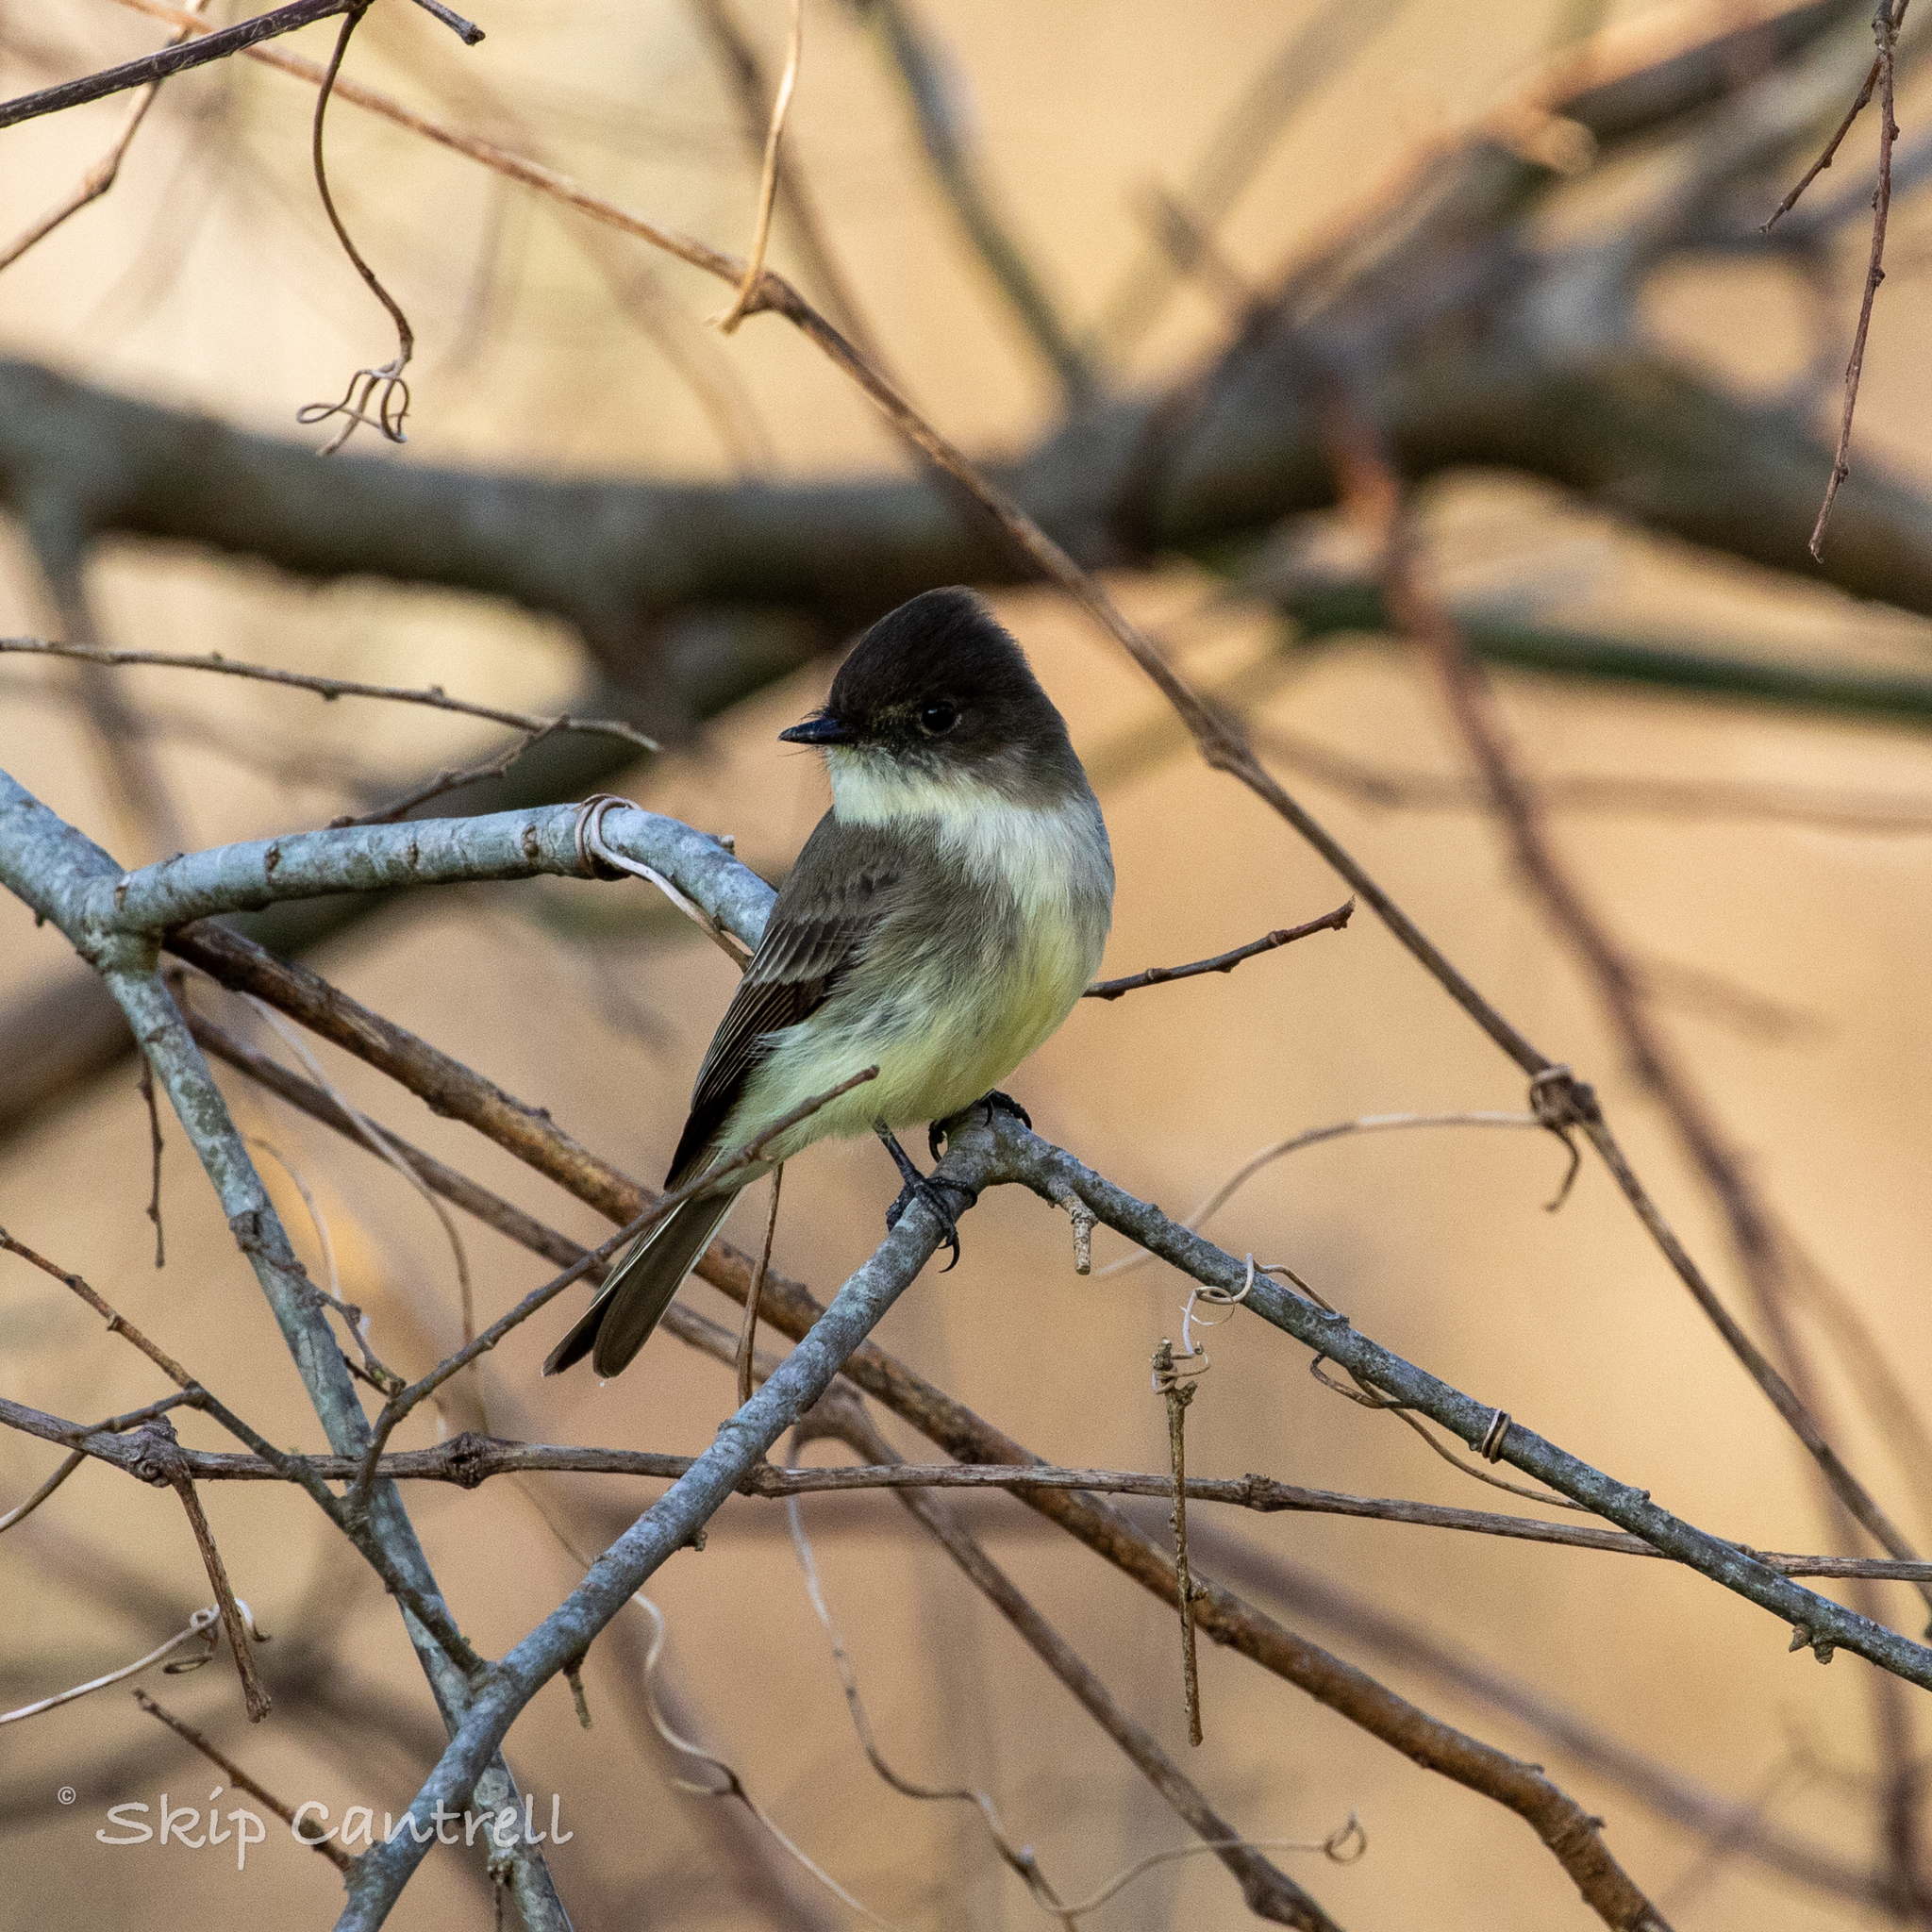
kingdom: Animalia
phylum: Chordata
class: Aves
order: Passeriformes
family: Tyrannidae
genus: Sayornis
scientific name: Sayornis phoebe
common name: Eastern phoebe
